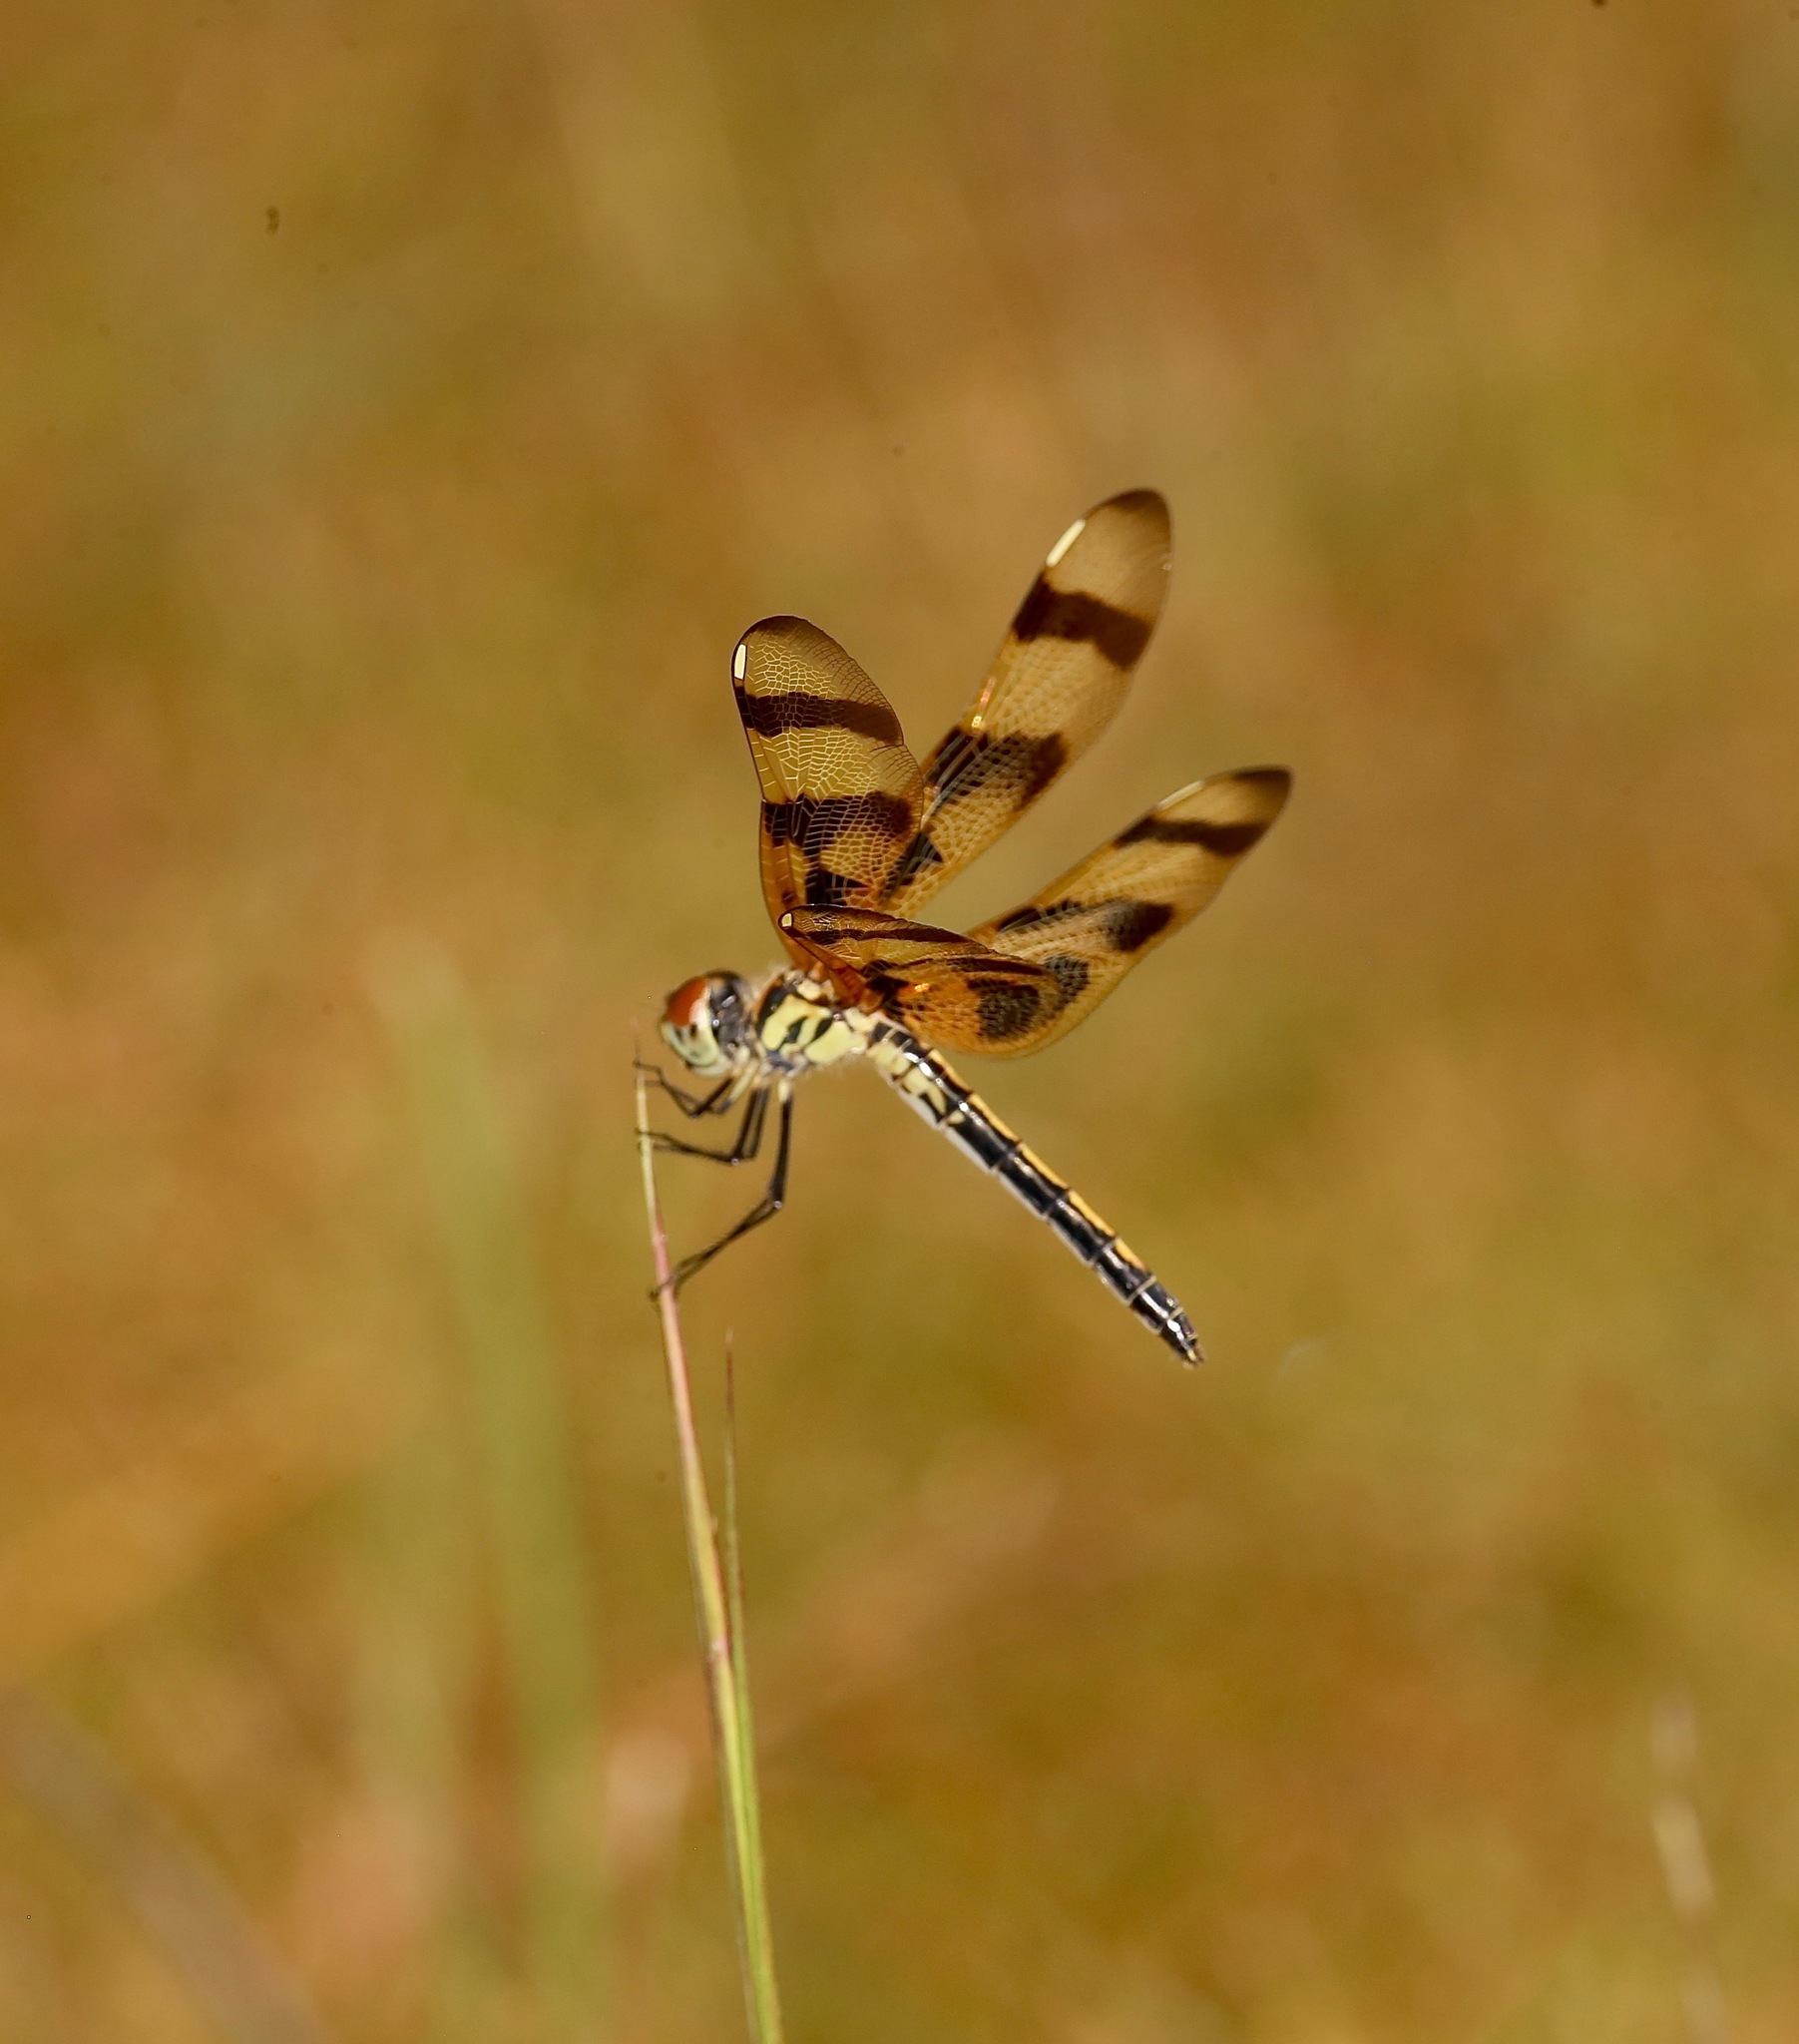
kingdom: Animalia
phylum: Arthropoda
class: Insecta
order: Odonata
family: Libellulidae
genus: Celithemis
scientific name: Celithemis eponina
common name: Halloween pennant
